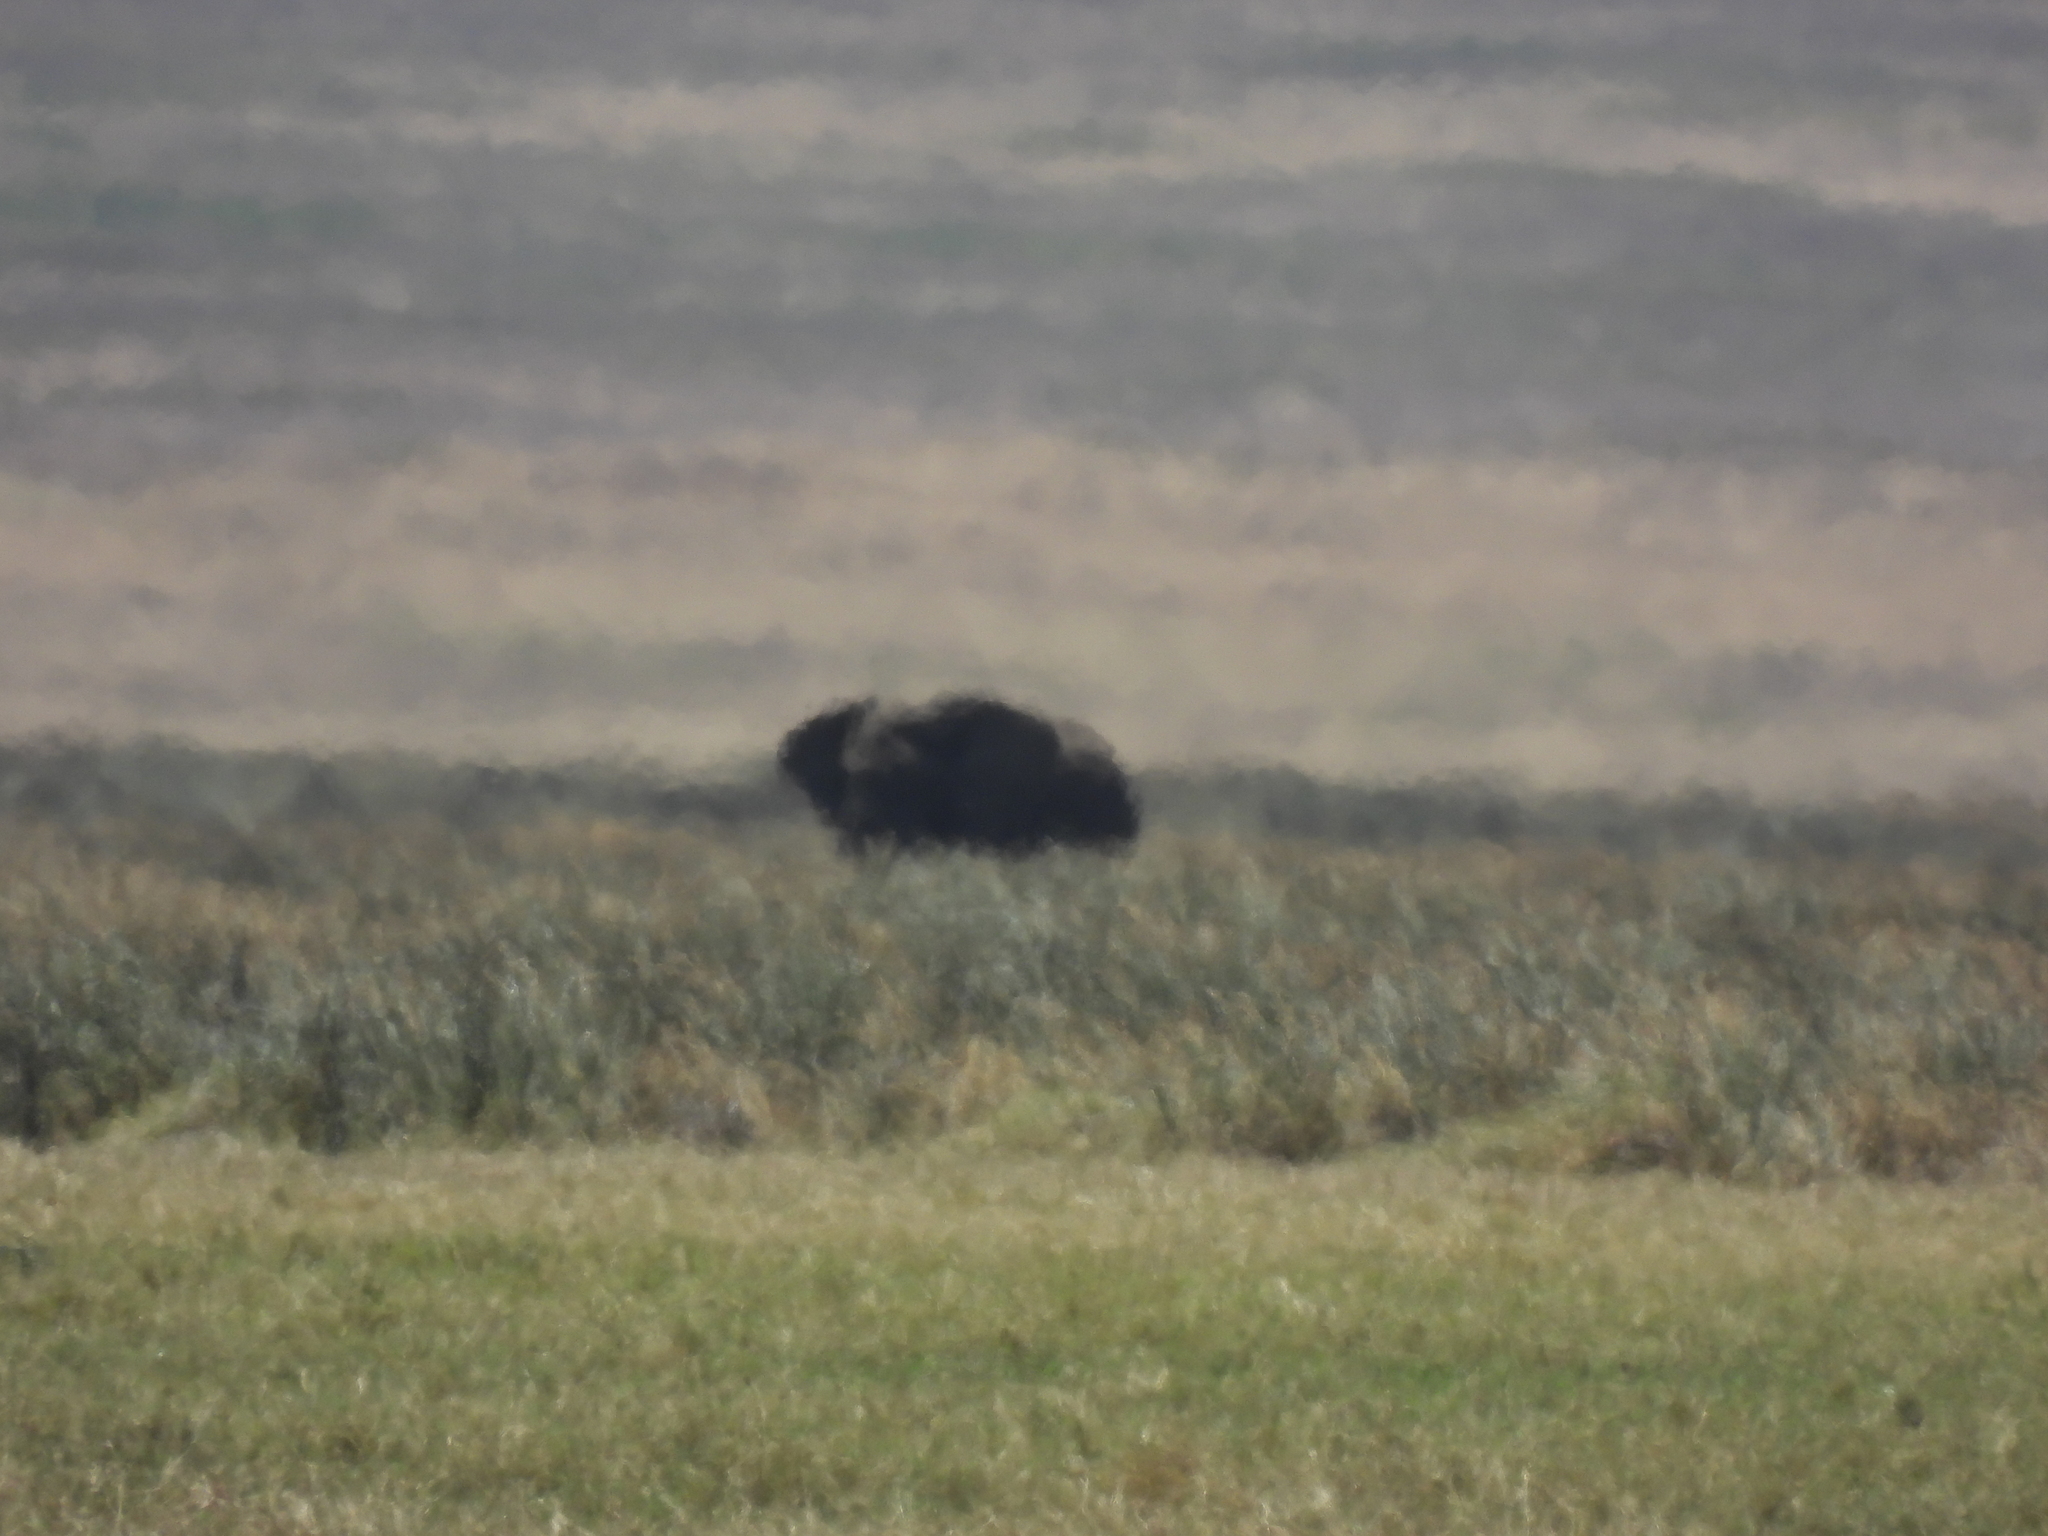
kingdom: Animalia
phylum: Chordata
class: Mammalia
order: Proboscidea
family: Elephantidae
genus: Loxodonta
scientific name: Loxodonta africana
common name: African elephant
